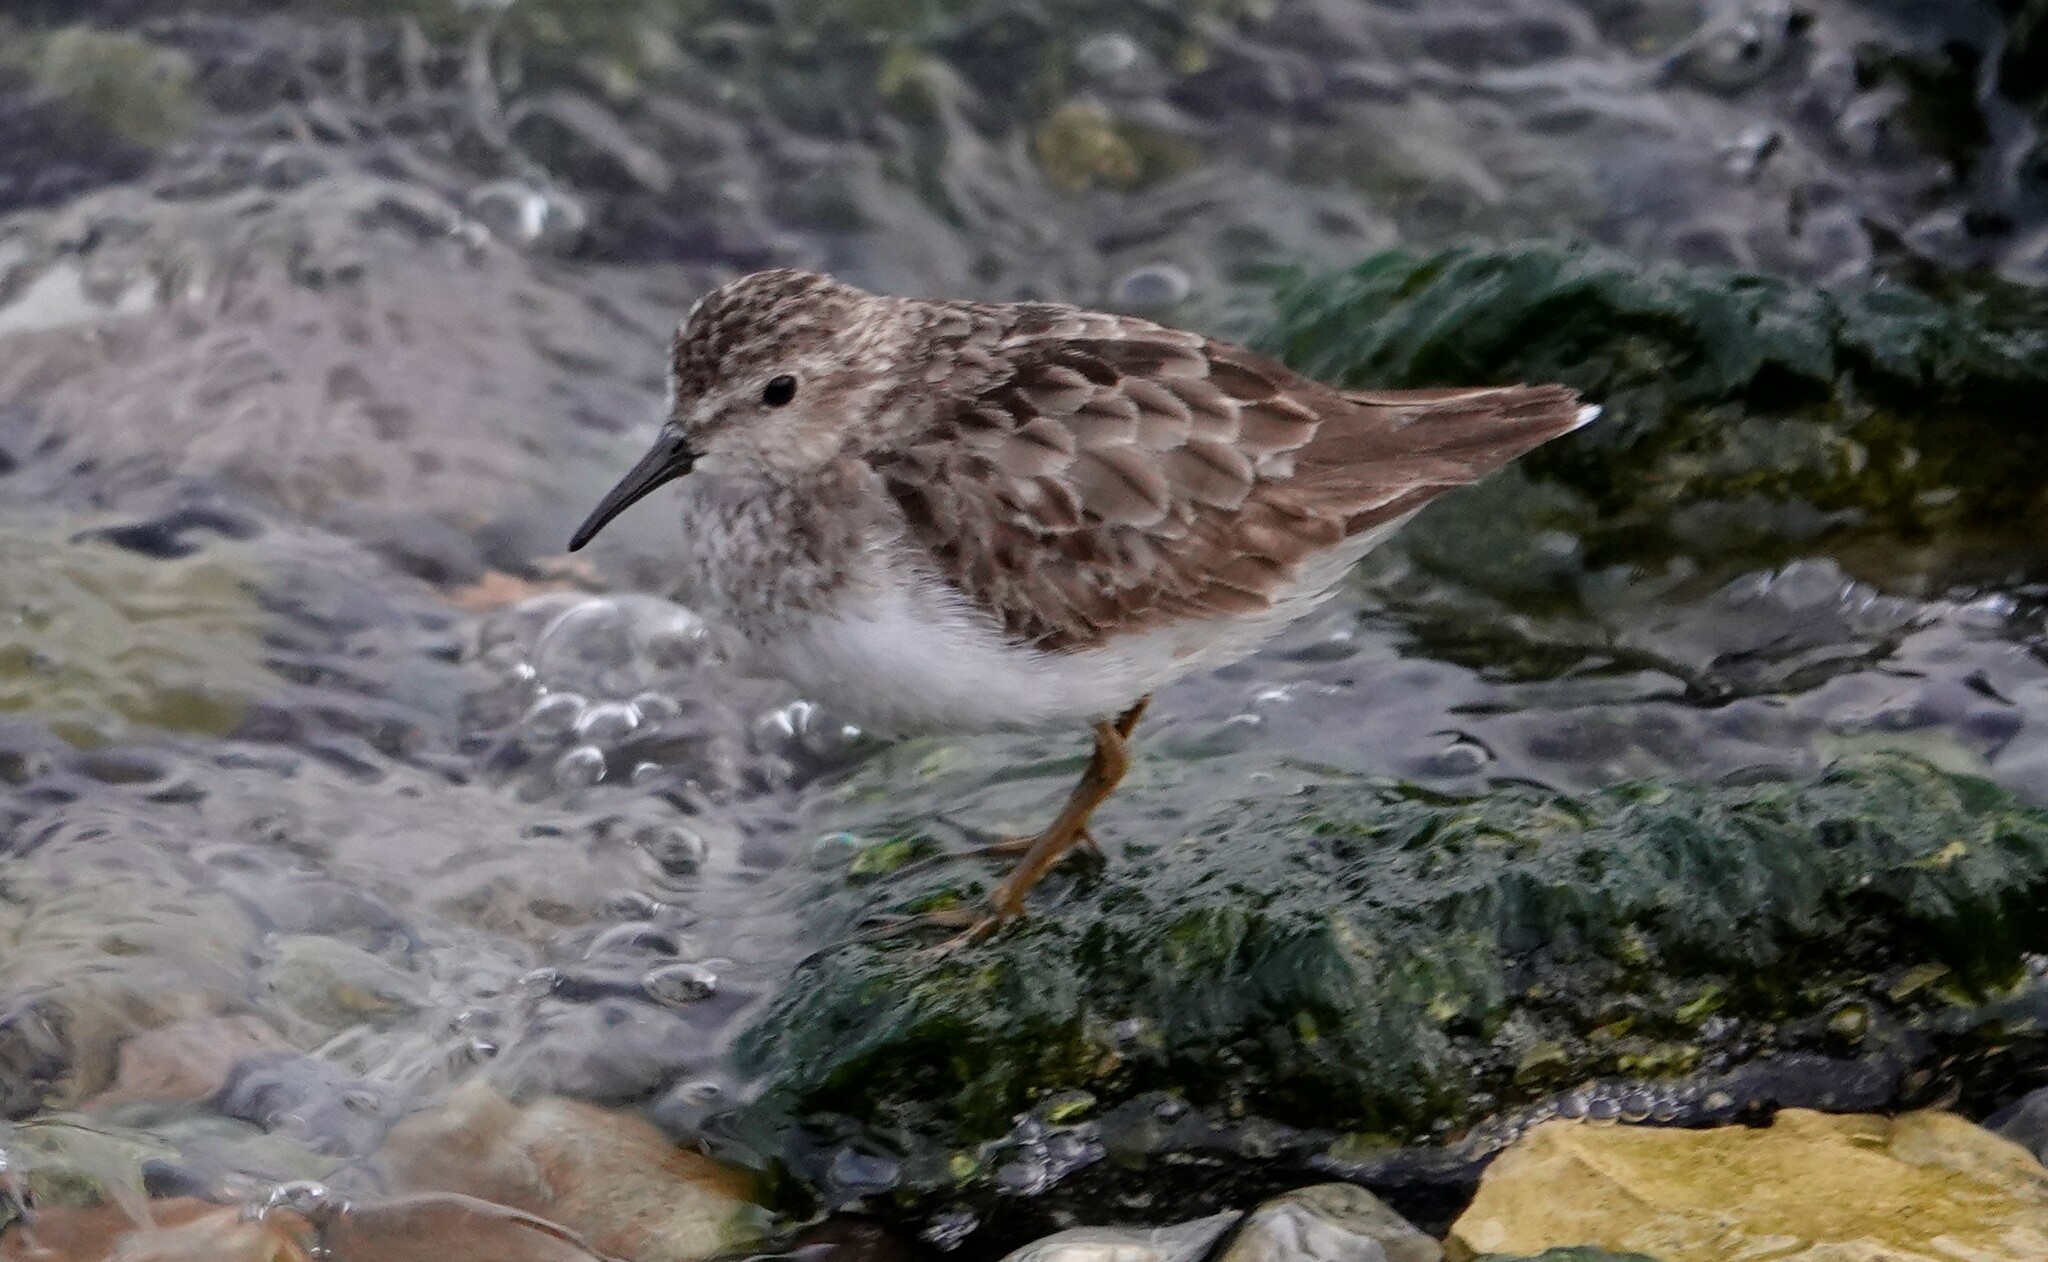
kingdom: Animalia
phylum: Chordata
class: Aves
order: Charadriiformes
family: Scolopacidae
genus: Calidris
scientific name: Calidris minutilla
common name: Least sandpiper
